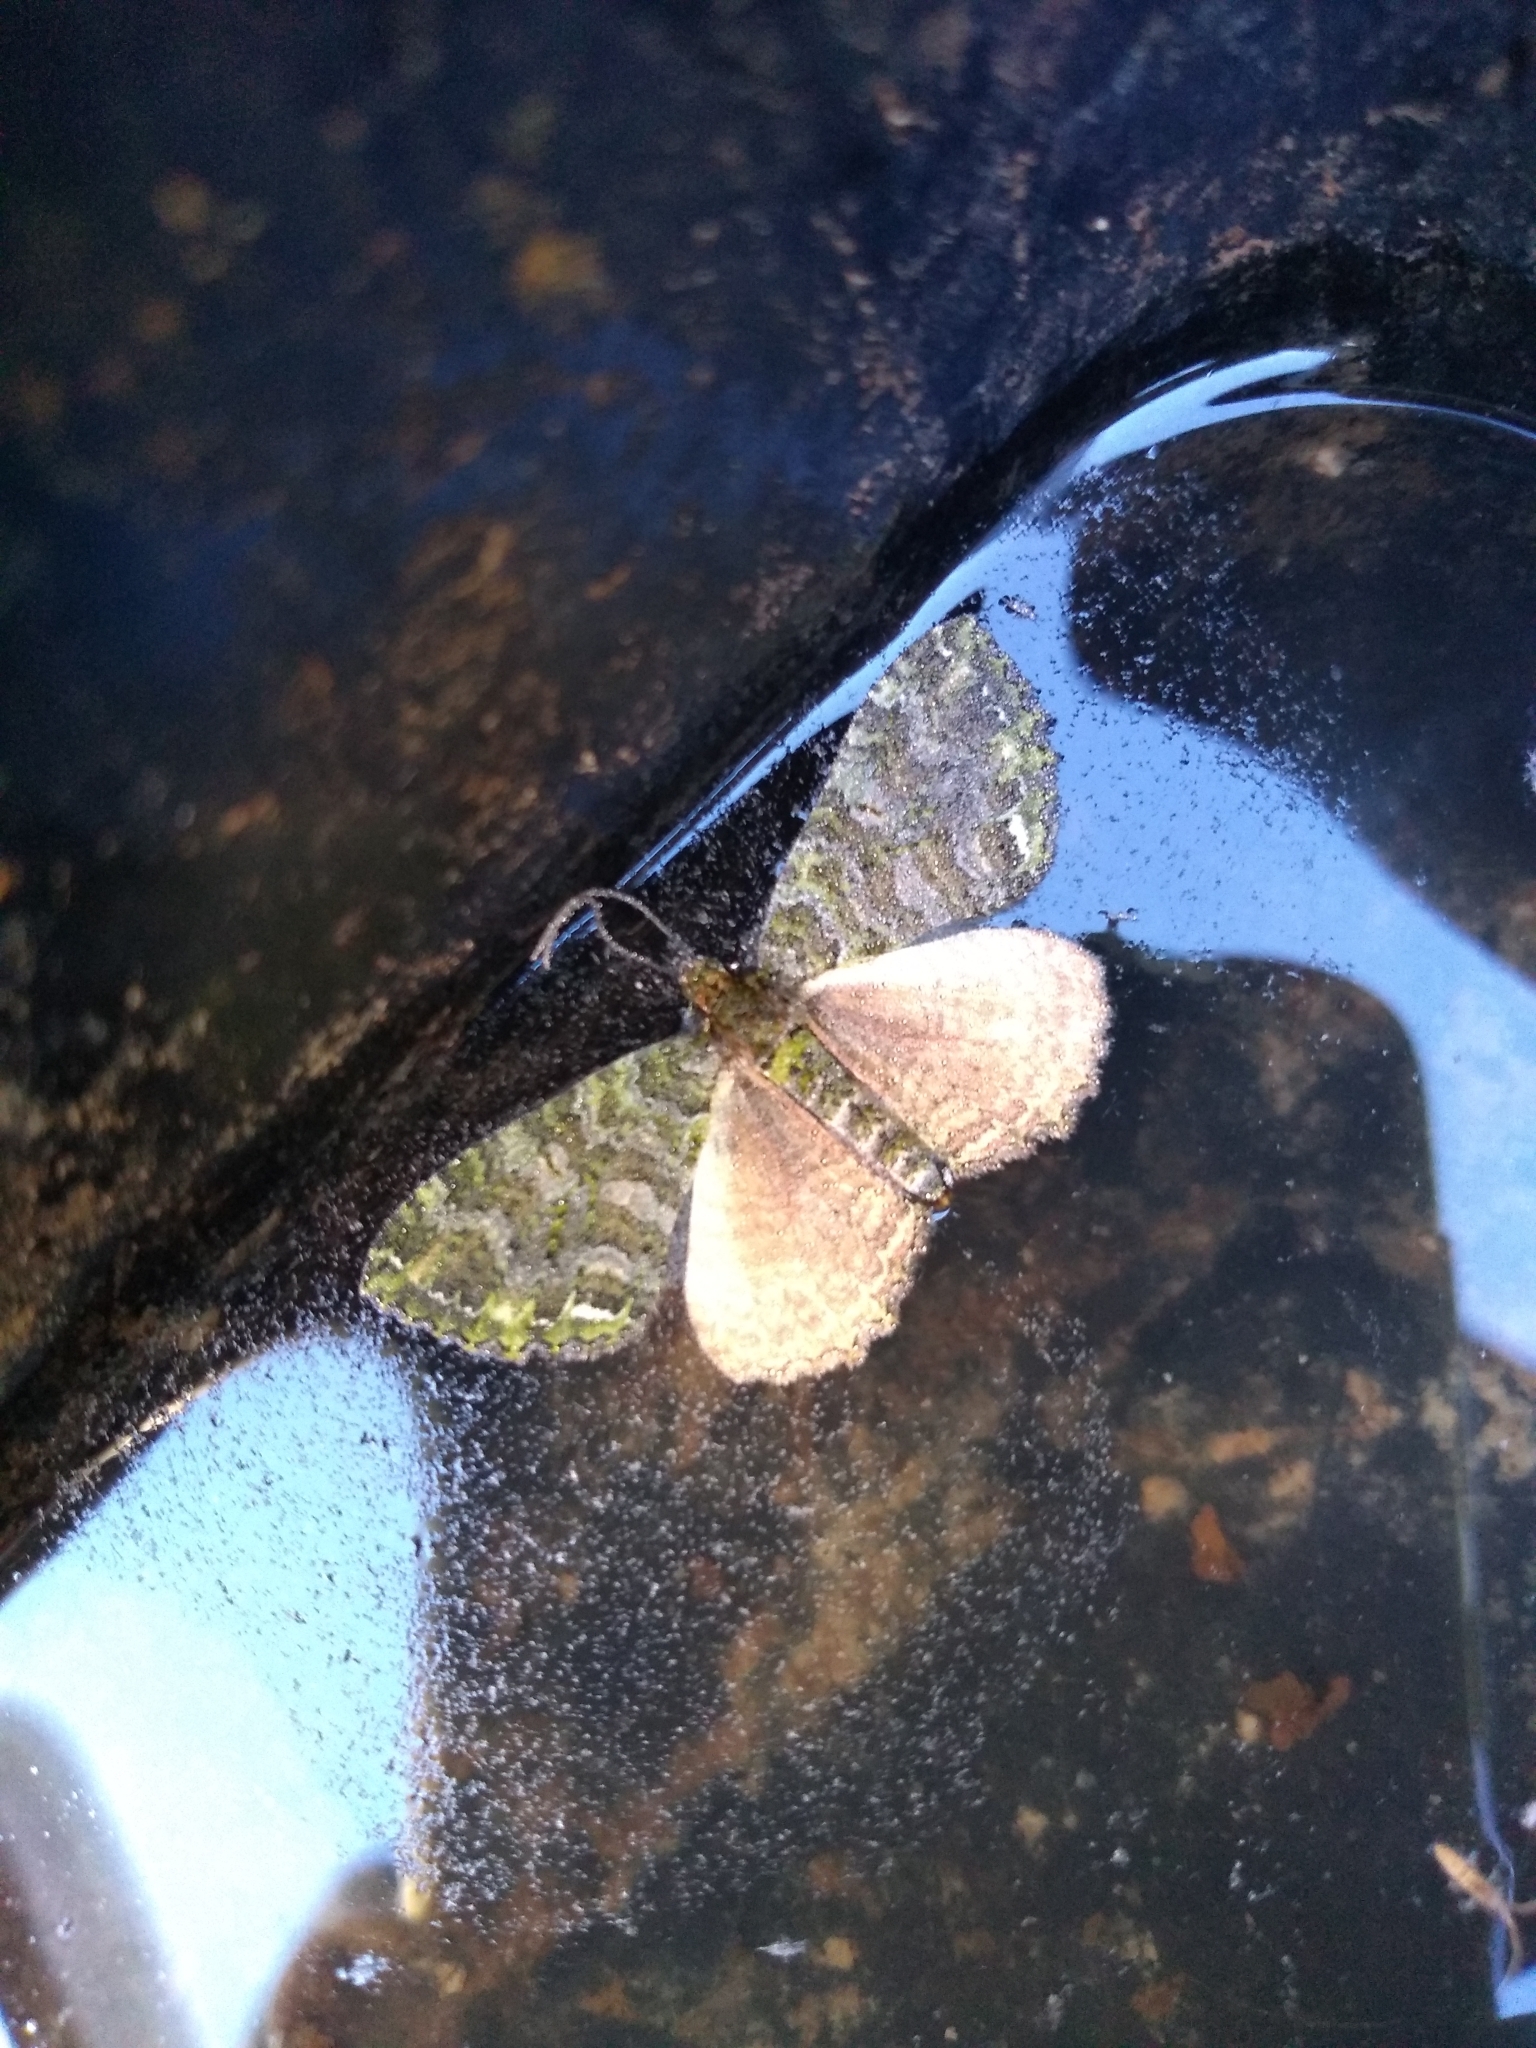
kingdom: Animalia
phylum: Arthropoda
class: Insecta
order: Lepidoptera
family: Geometridae
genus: Austrocidaria
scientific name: Austrocidaria similata
